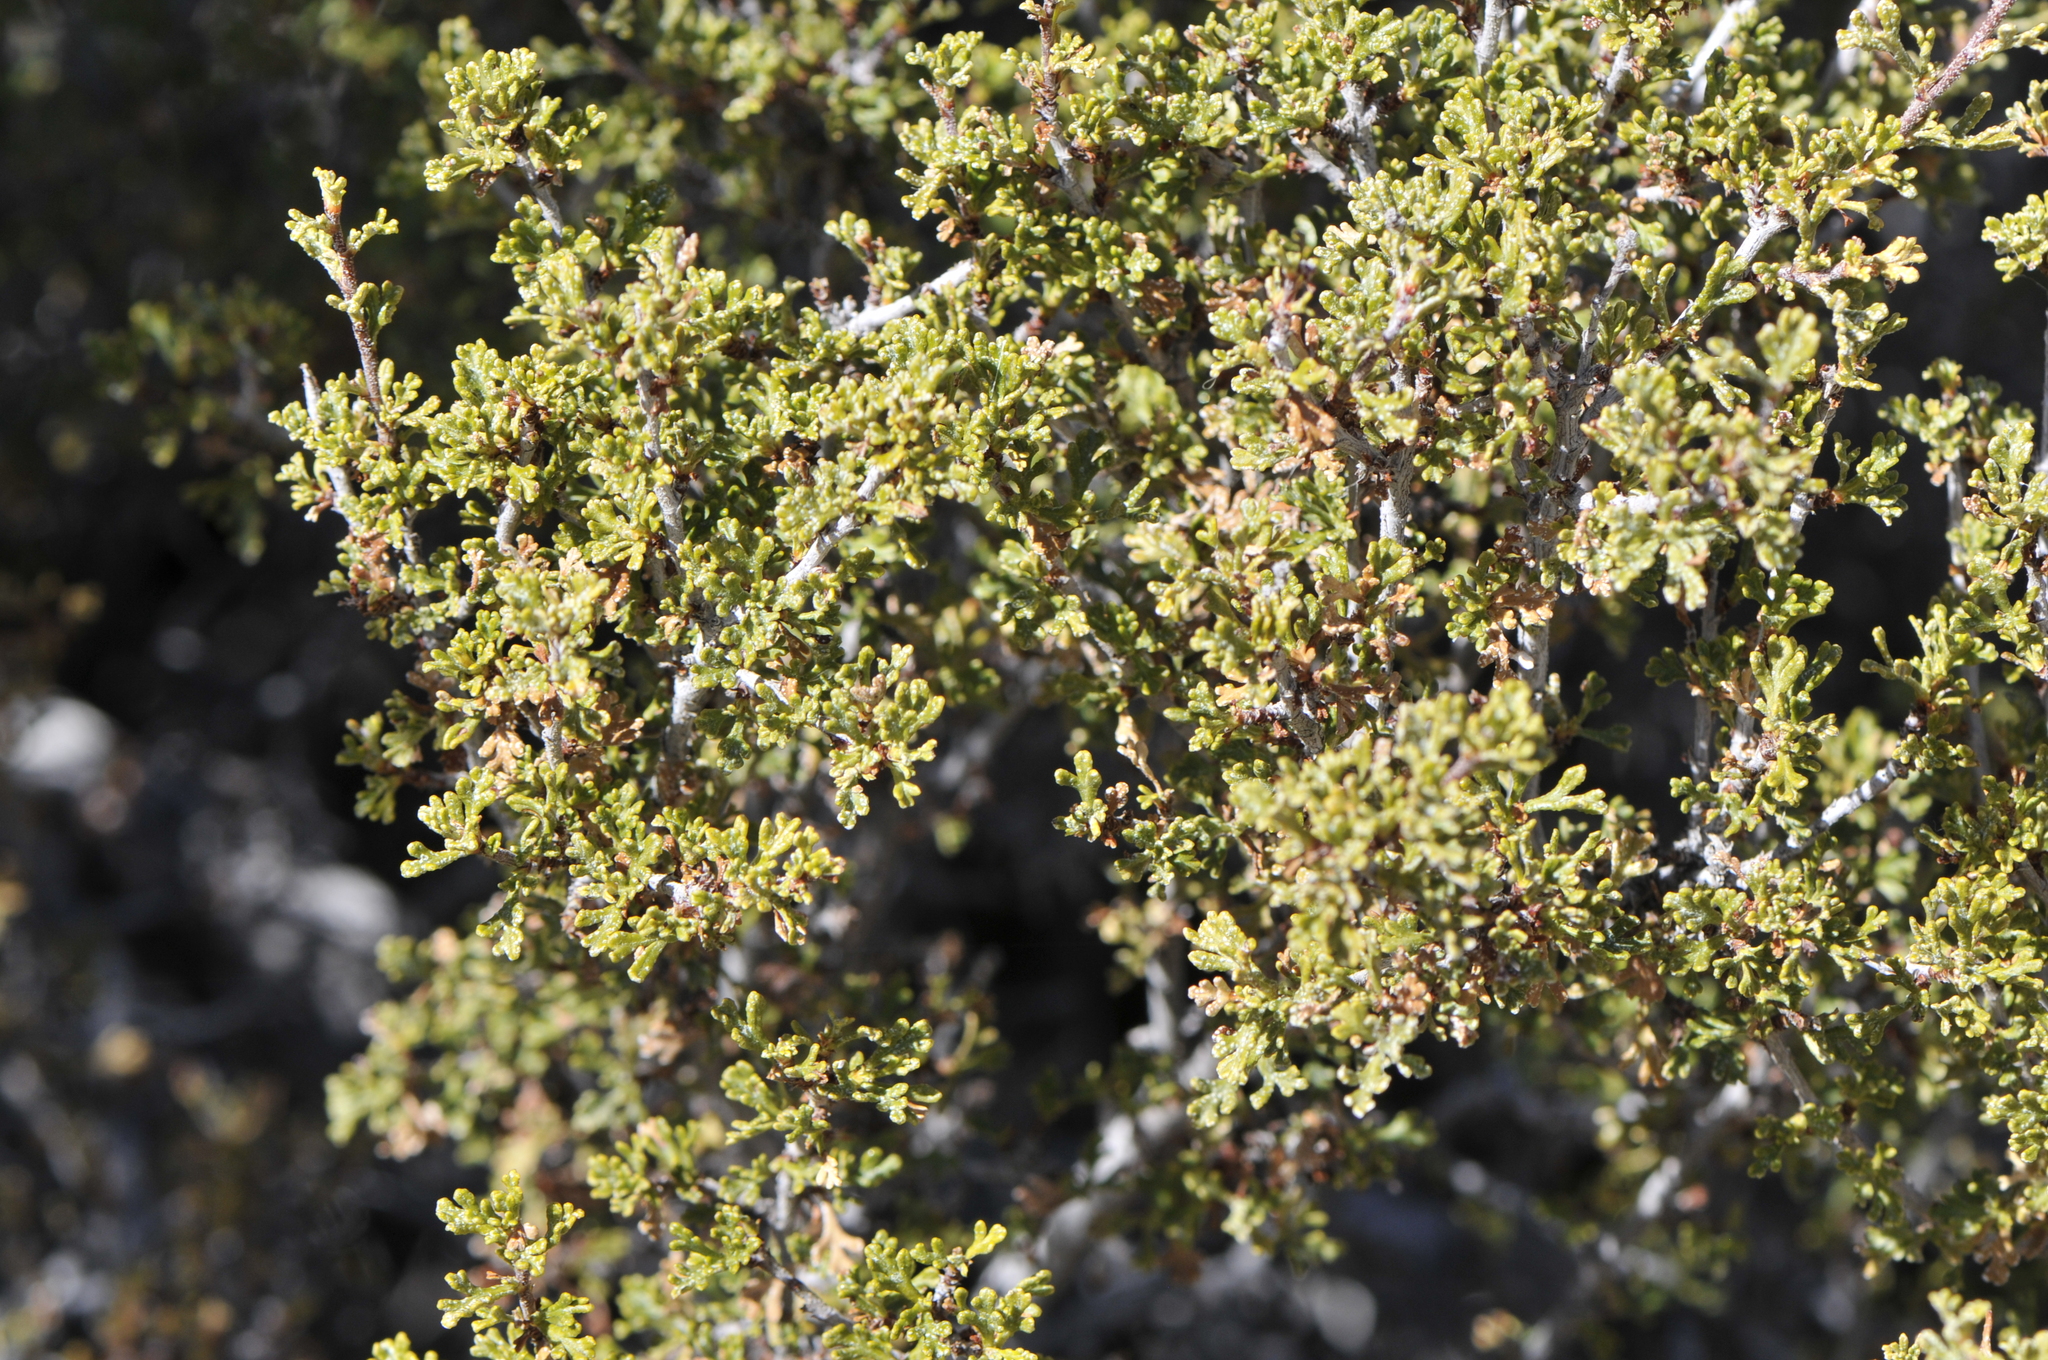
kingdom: Plantae
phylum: Tracheophyta
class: Magnoliopsida
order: Rosales
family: Rosaceae
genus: Purshia
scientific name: Purshia stansburiana
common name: Stansbury's cliffrose
